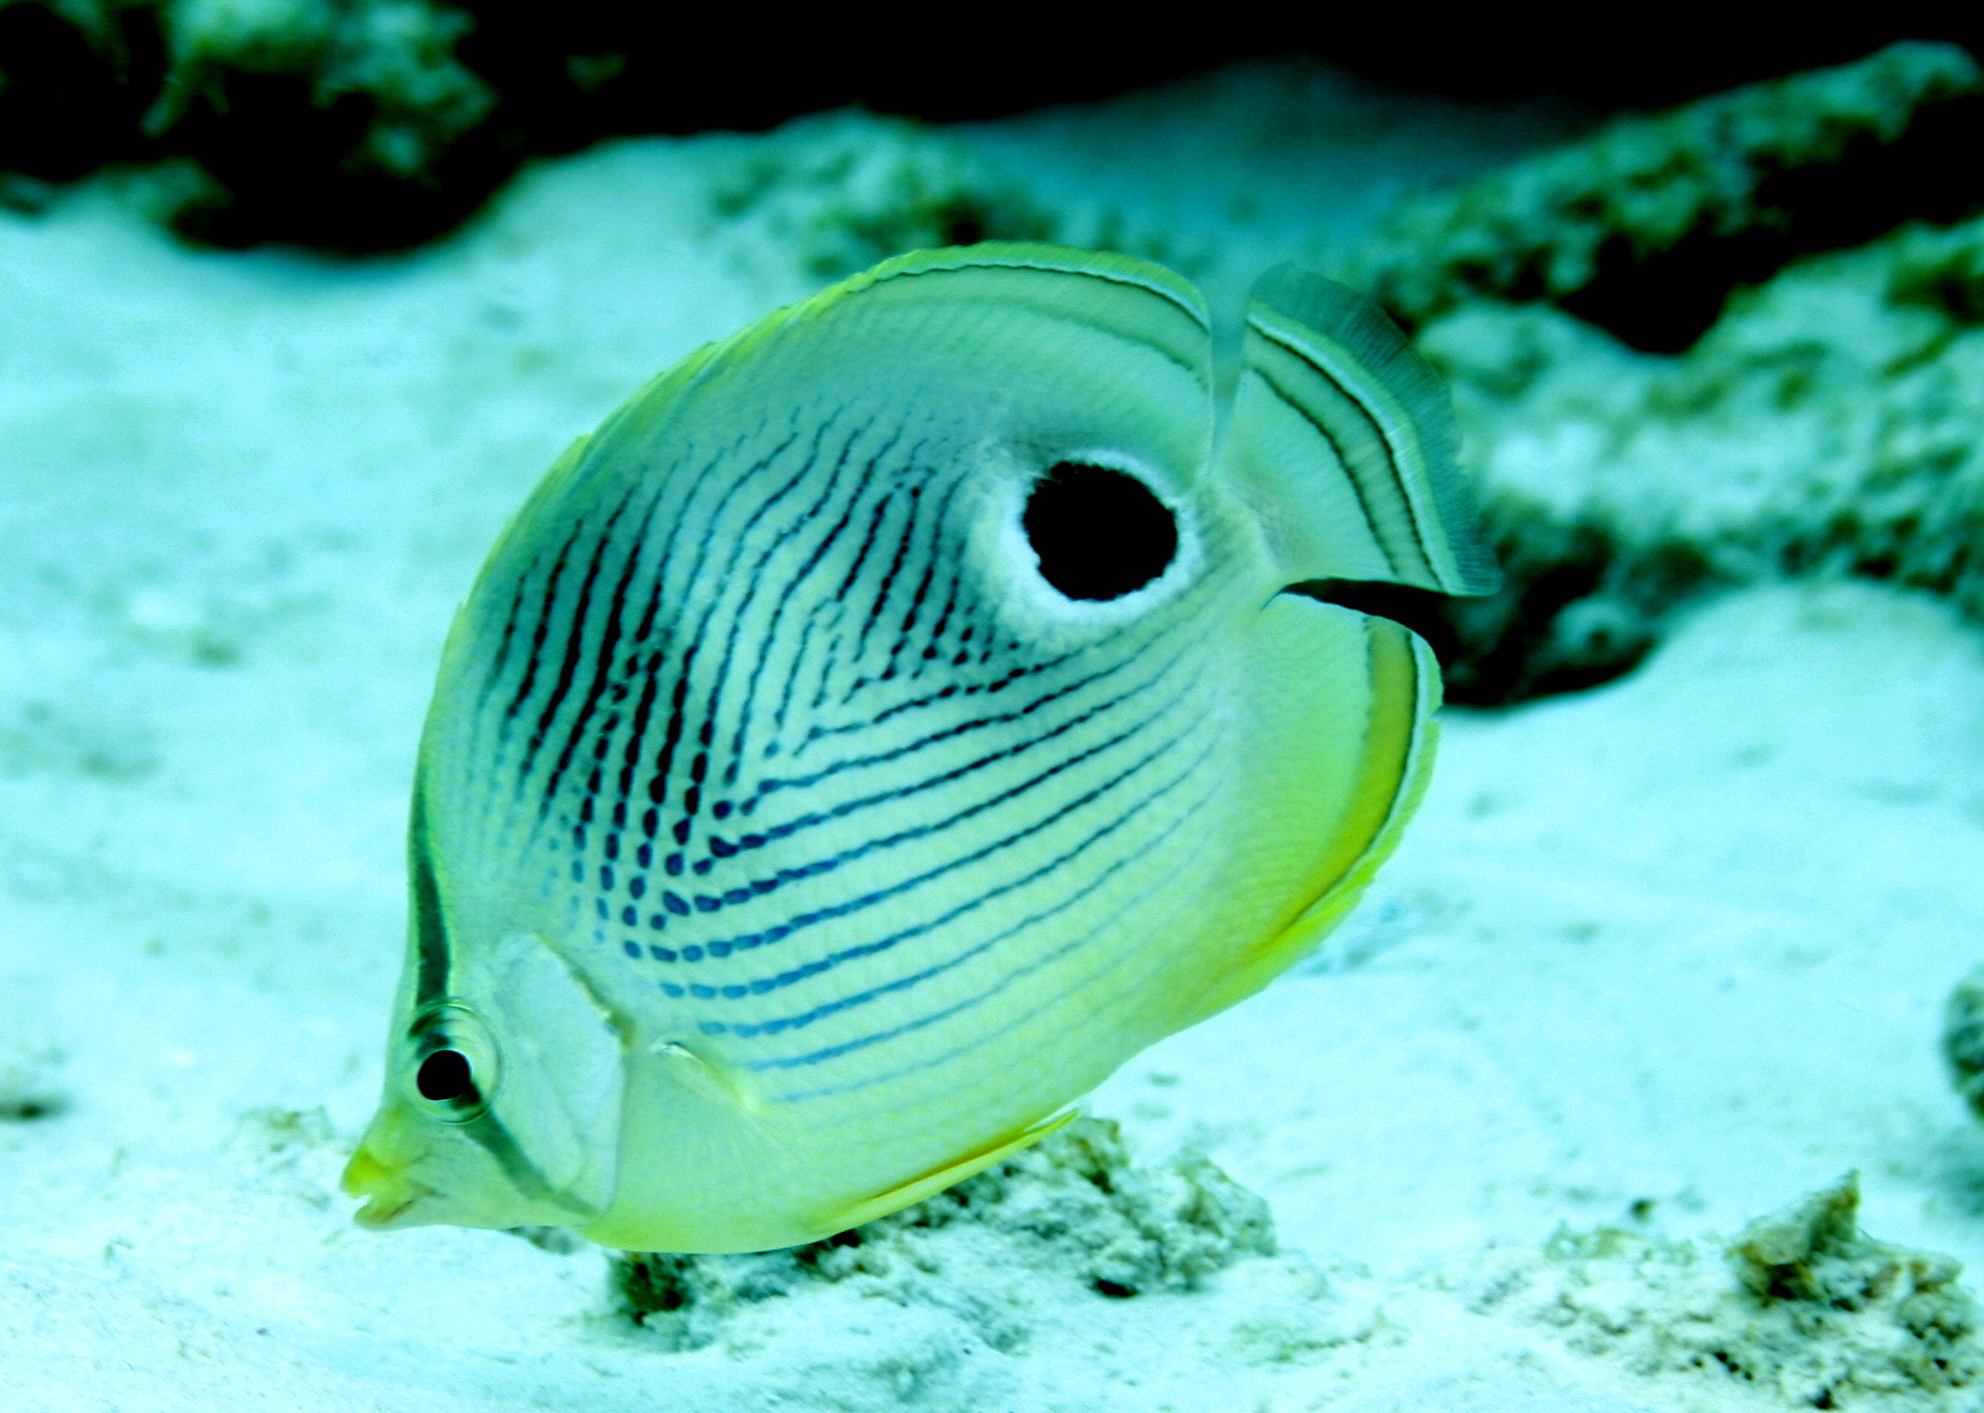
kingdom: Animalia
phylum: Chordata
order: Perciformes
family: Chaetodontidae
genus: Chaetodon
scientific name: Chaetodon capistratus
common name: Kete
